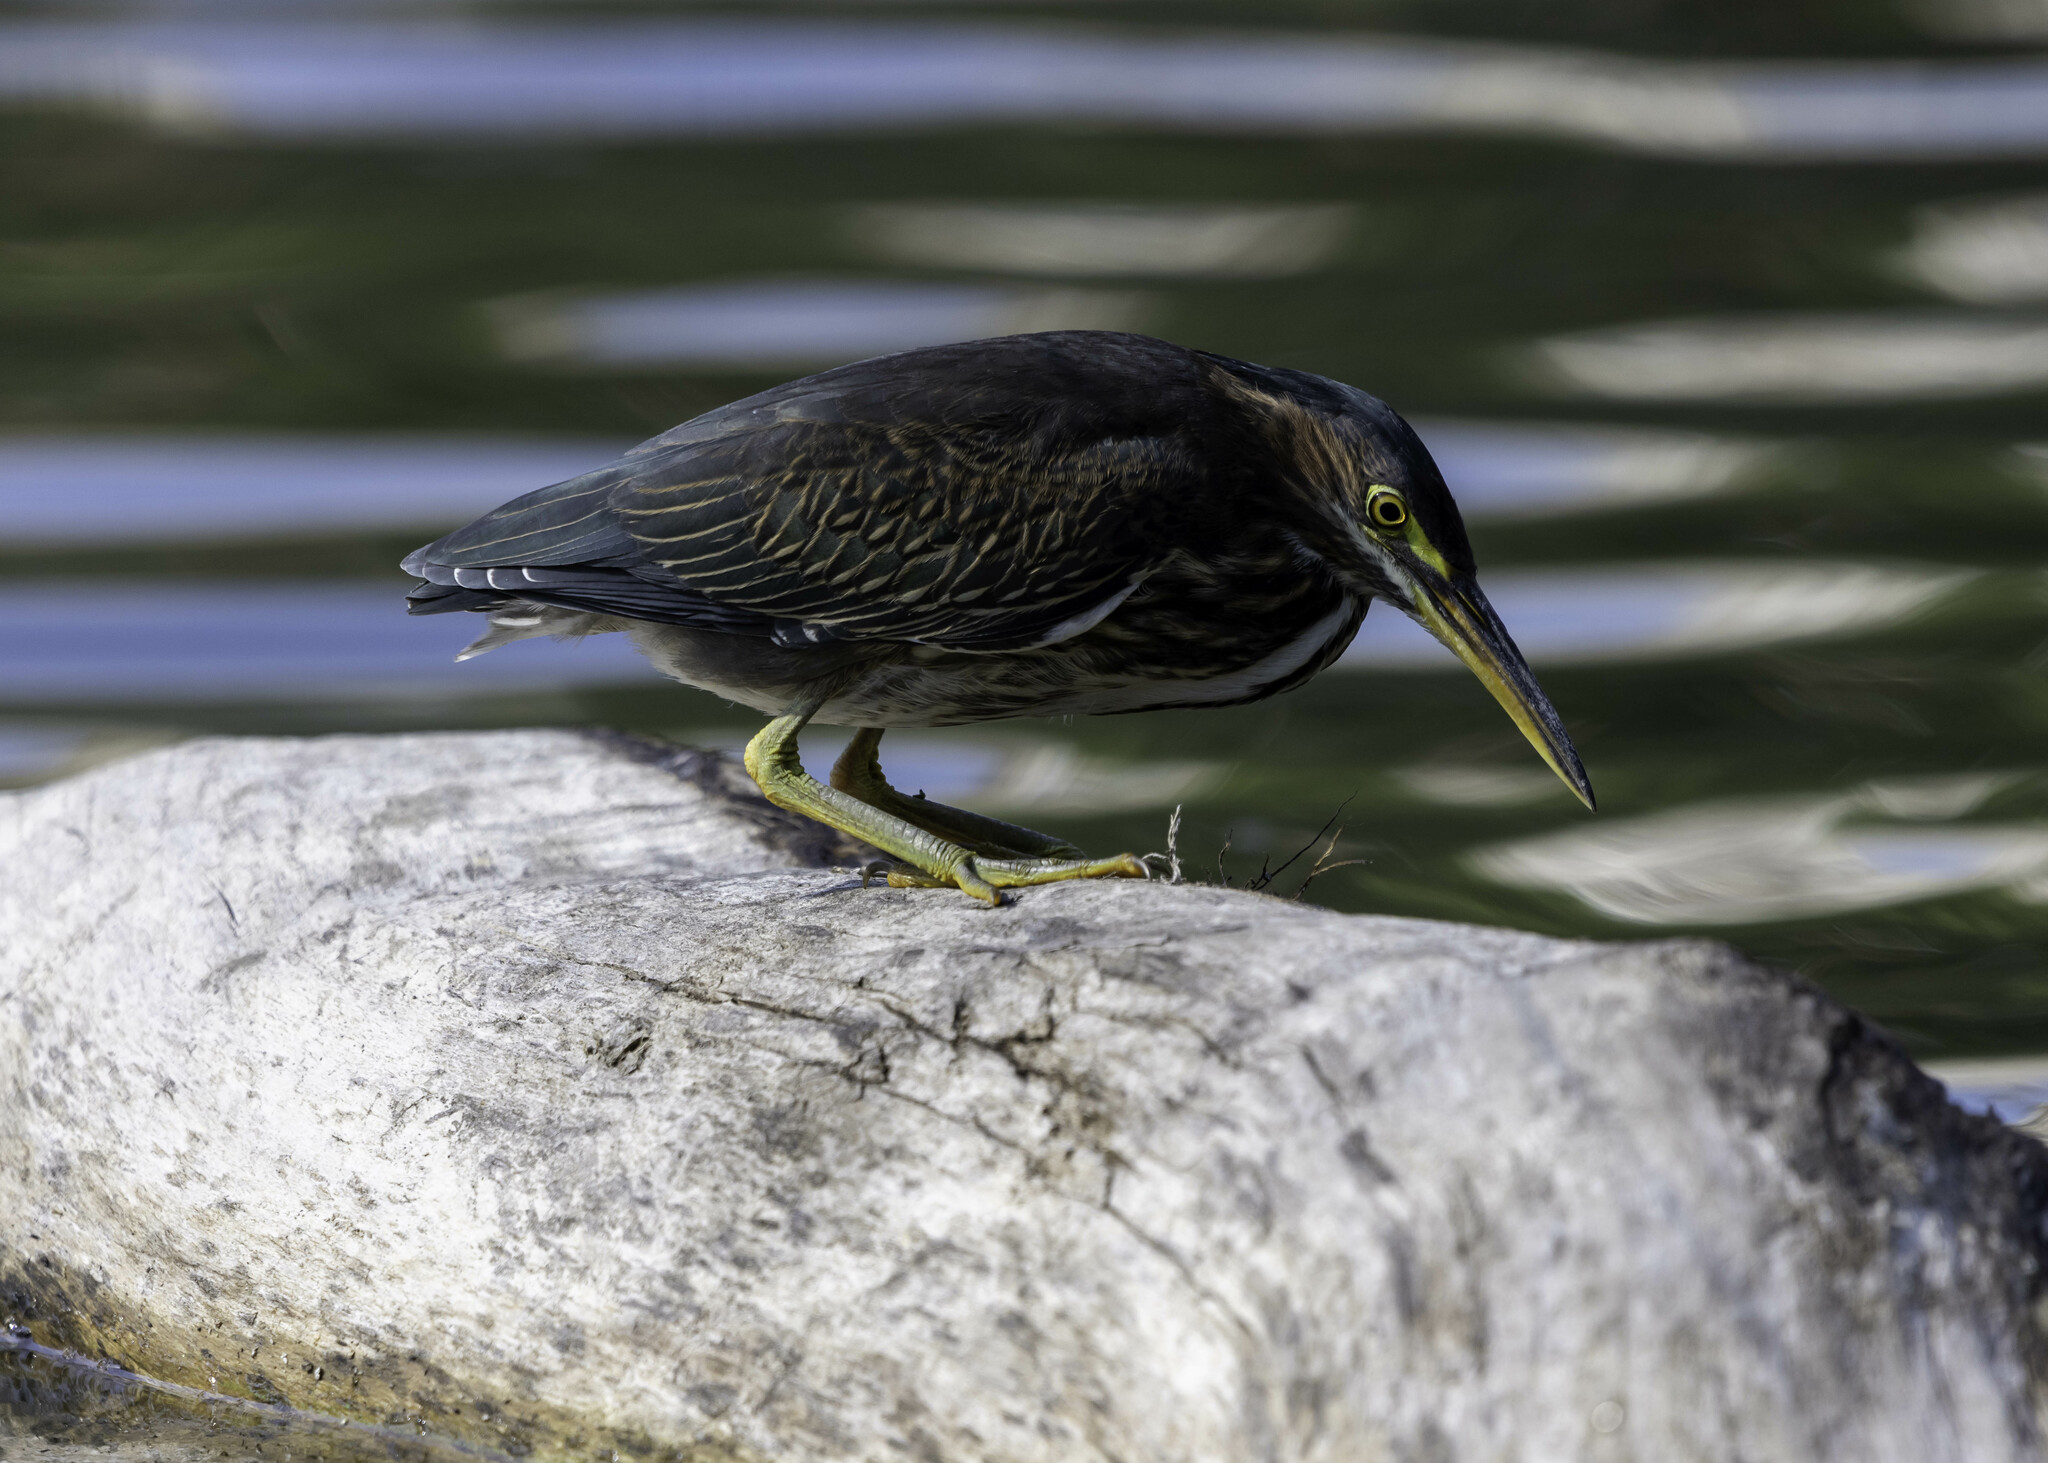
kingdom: Animalia
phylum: Chordata
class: Aves
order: Pelecaniformes
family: Ardeidae
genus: Butorides
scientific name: Butorides virescens
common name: Green heron
